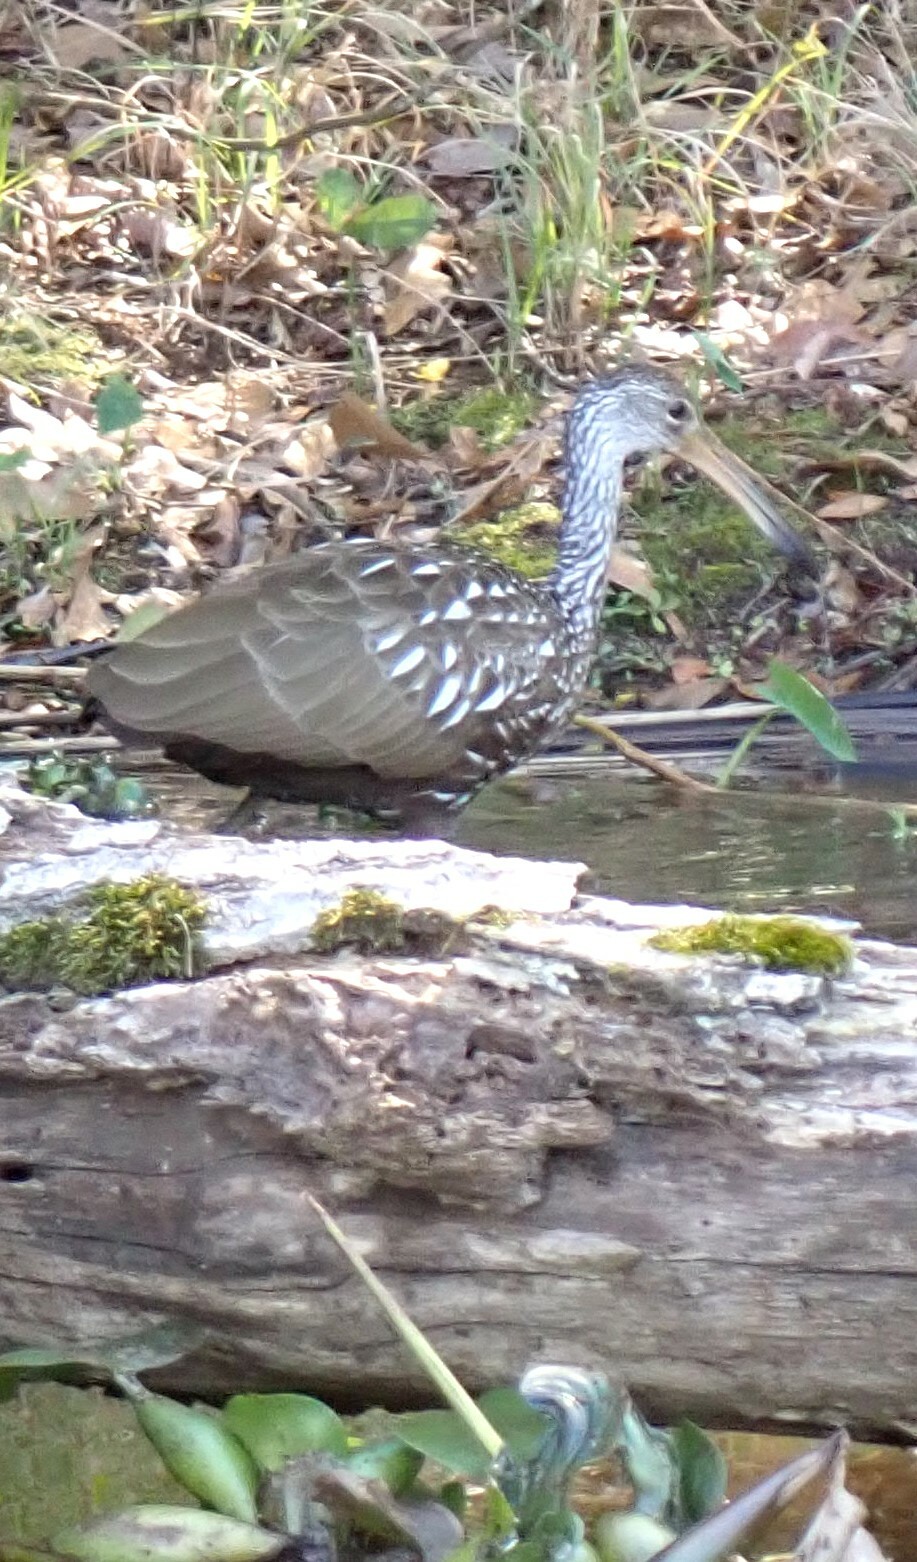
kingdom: Animalia
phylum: Chordata
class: Aves
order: Gruiformes
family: Aramidae
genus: Aramus
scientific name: Aramus guarauna
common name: Limpkin
